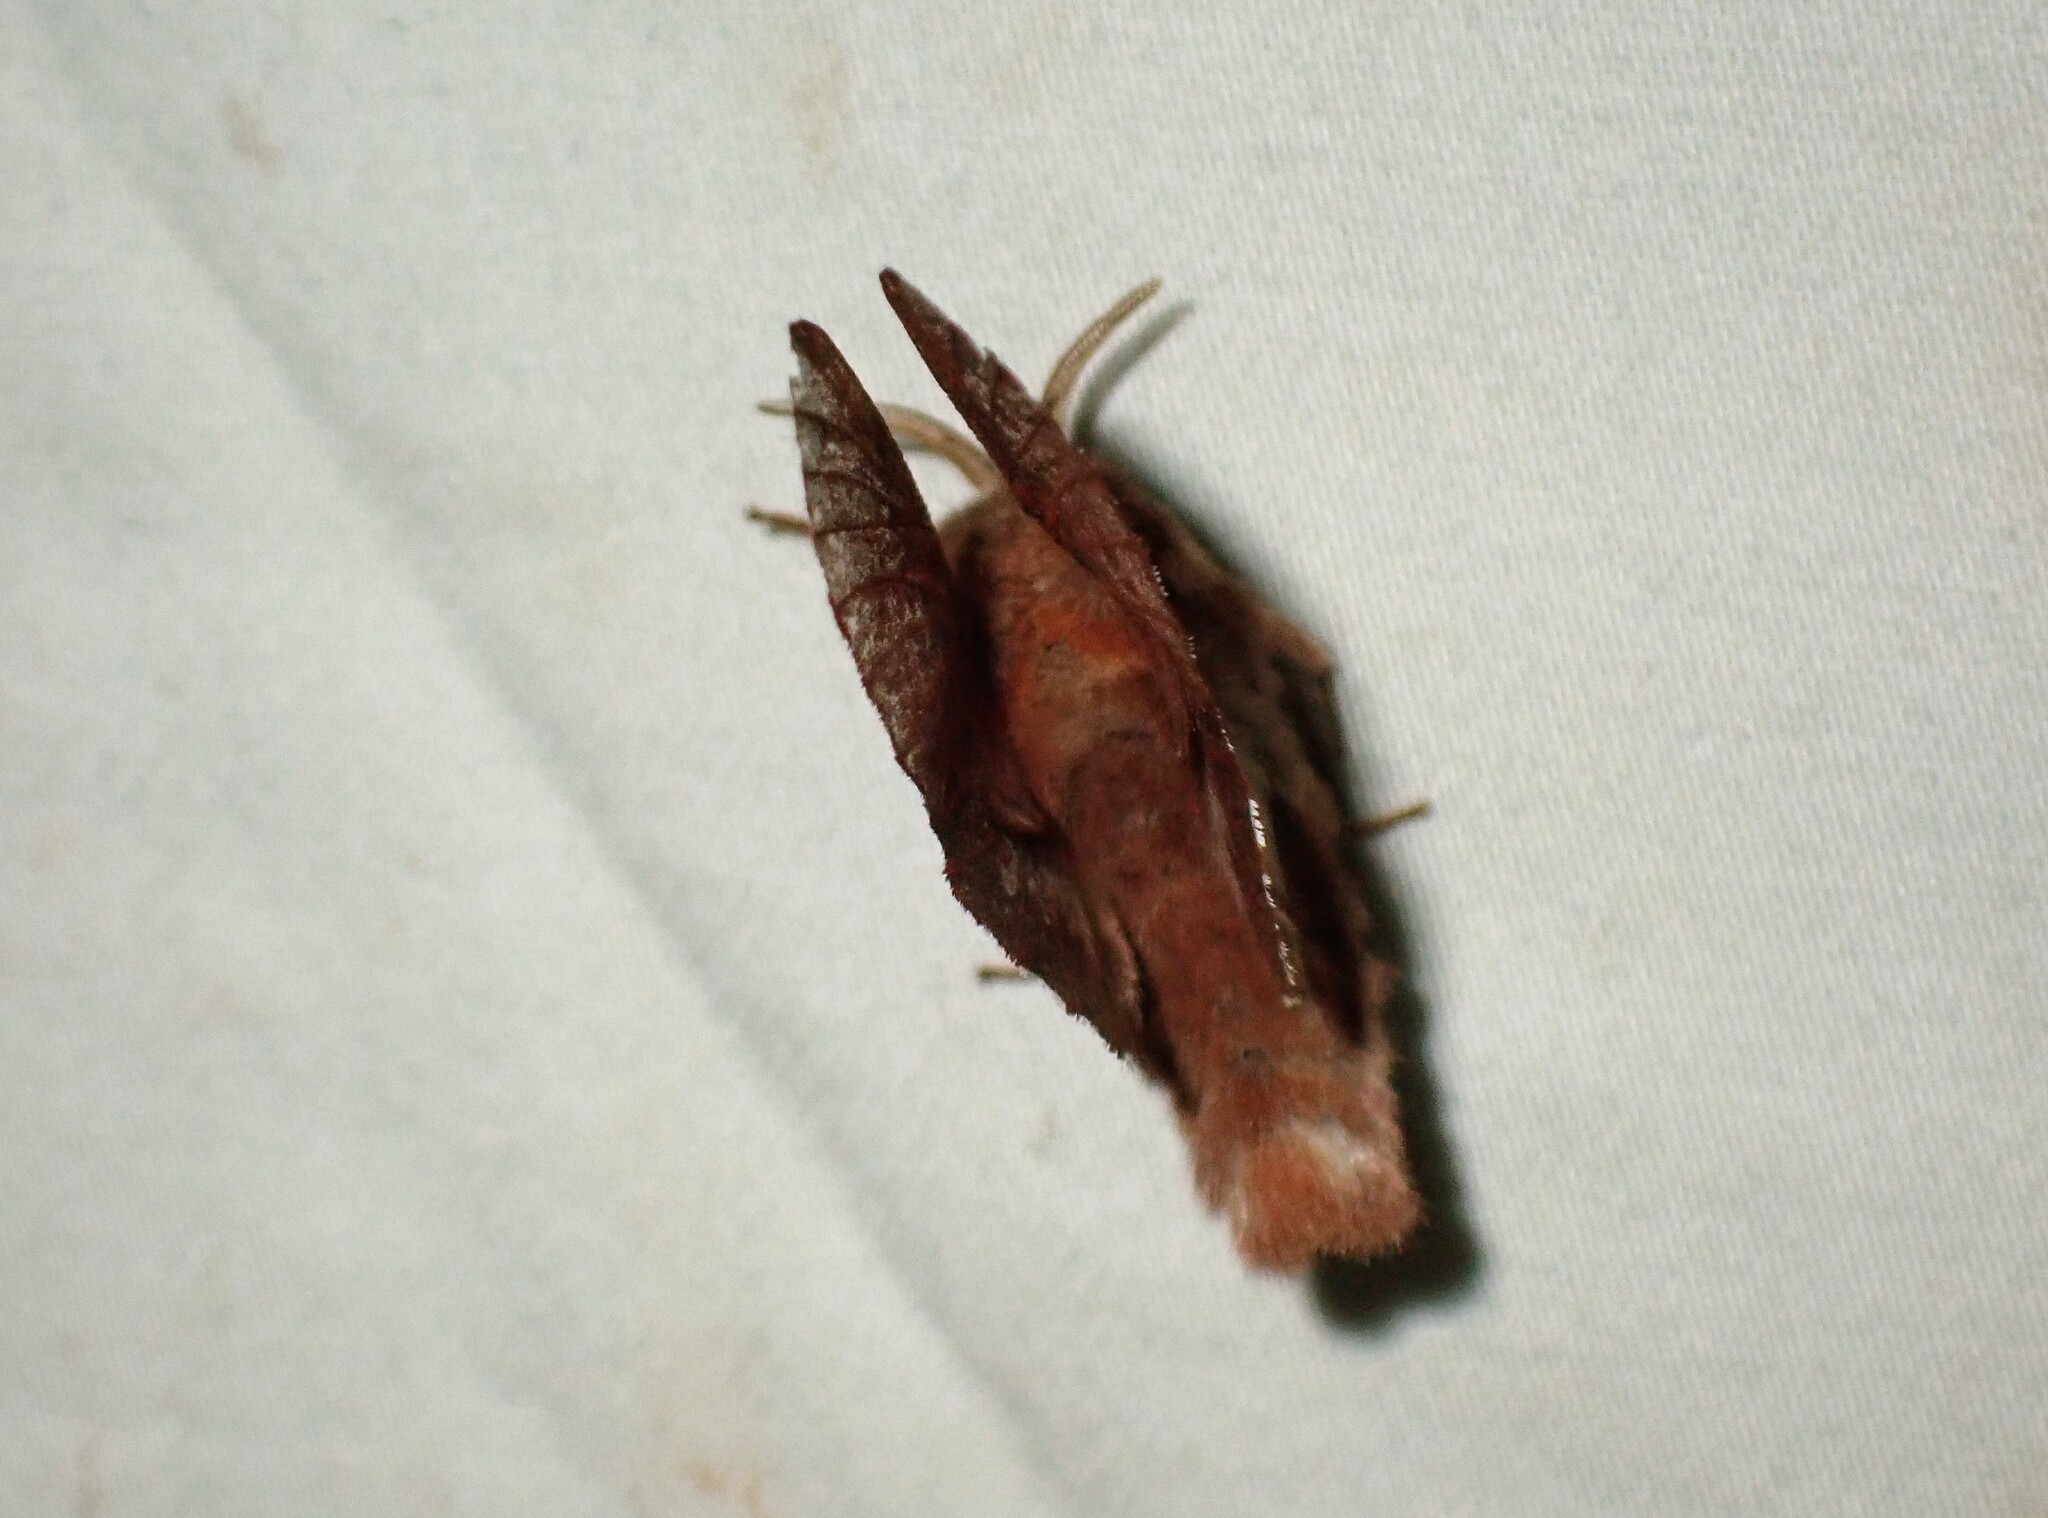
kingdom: Animalia
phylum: Arthropoda
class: Insecta
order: Lepidoptera
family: Lasiocampidae
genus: Phyllodesma
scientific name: Phyllodesma americana
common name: American lappet moth
